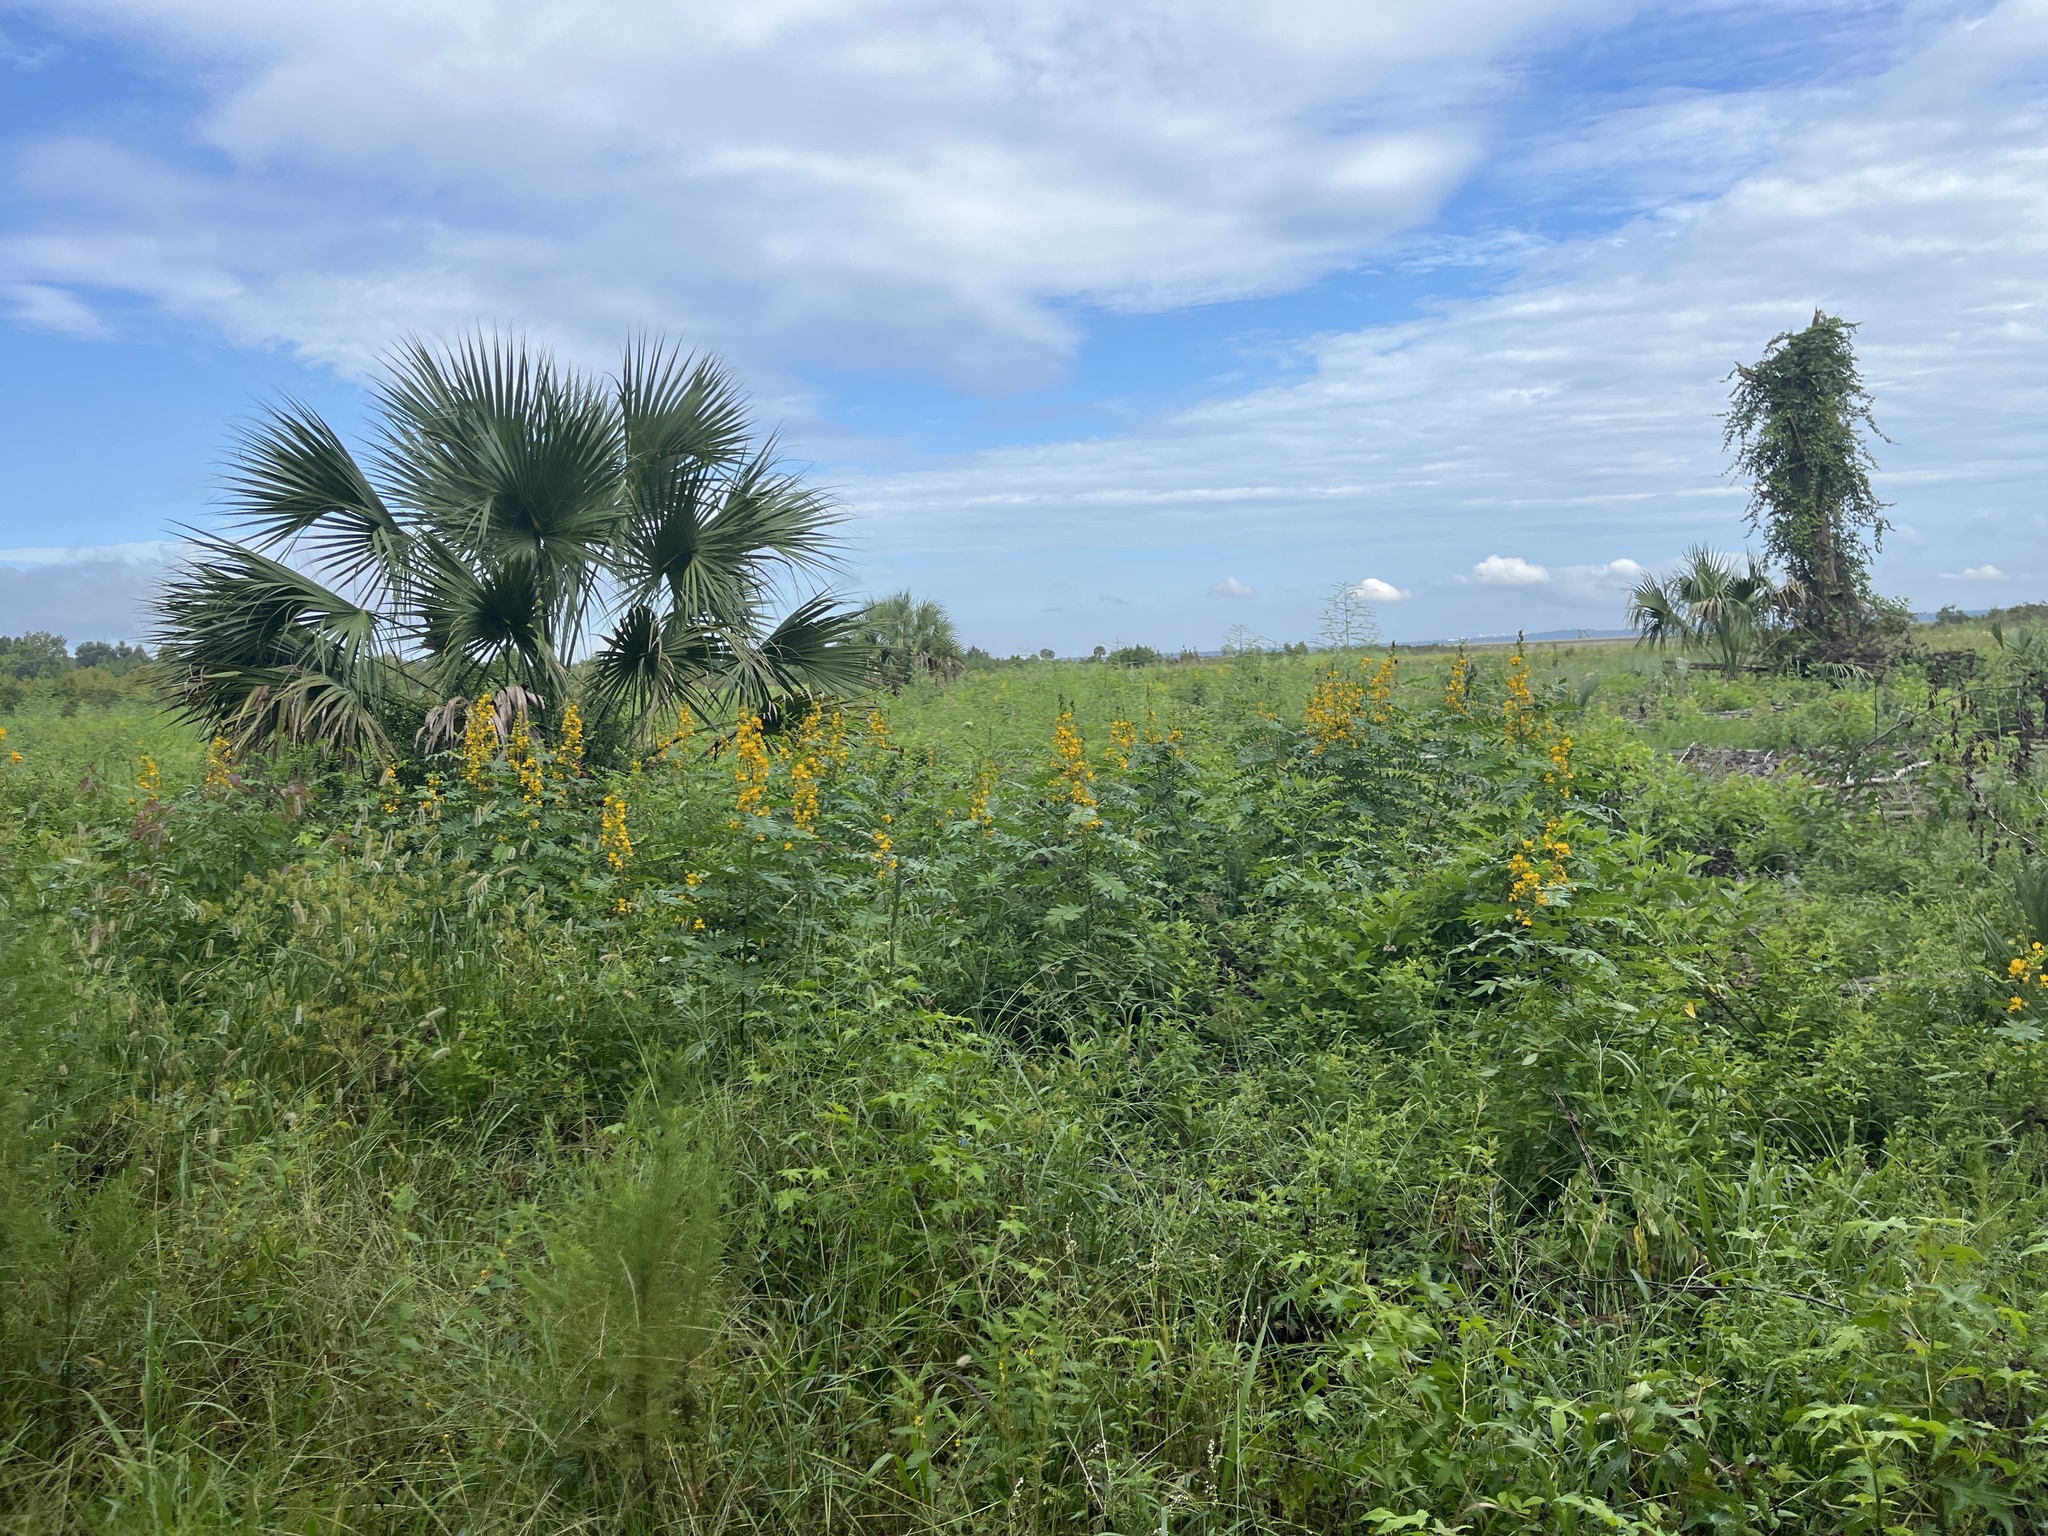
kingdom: Plantae
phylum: Tracheophyta
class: Magnoliopsida
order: Fabales
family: Fabaceae
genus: Senna
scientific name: Senna marilandica
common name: American senna
